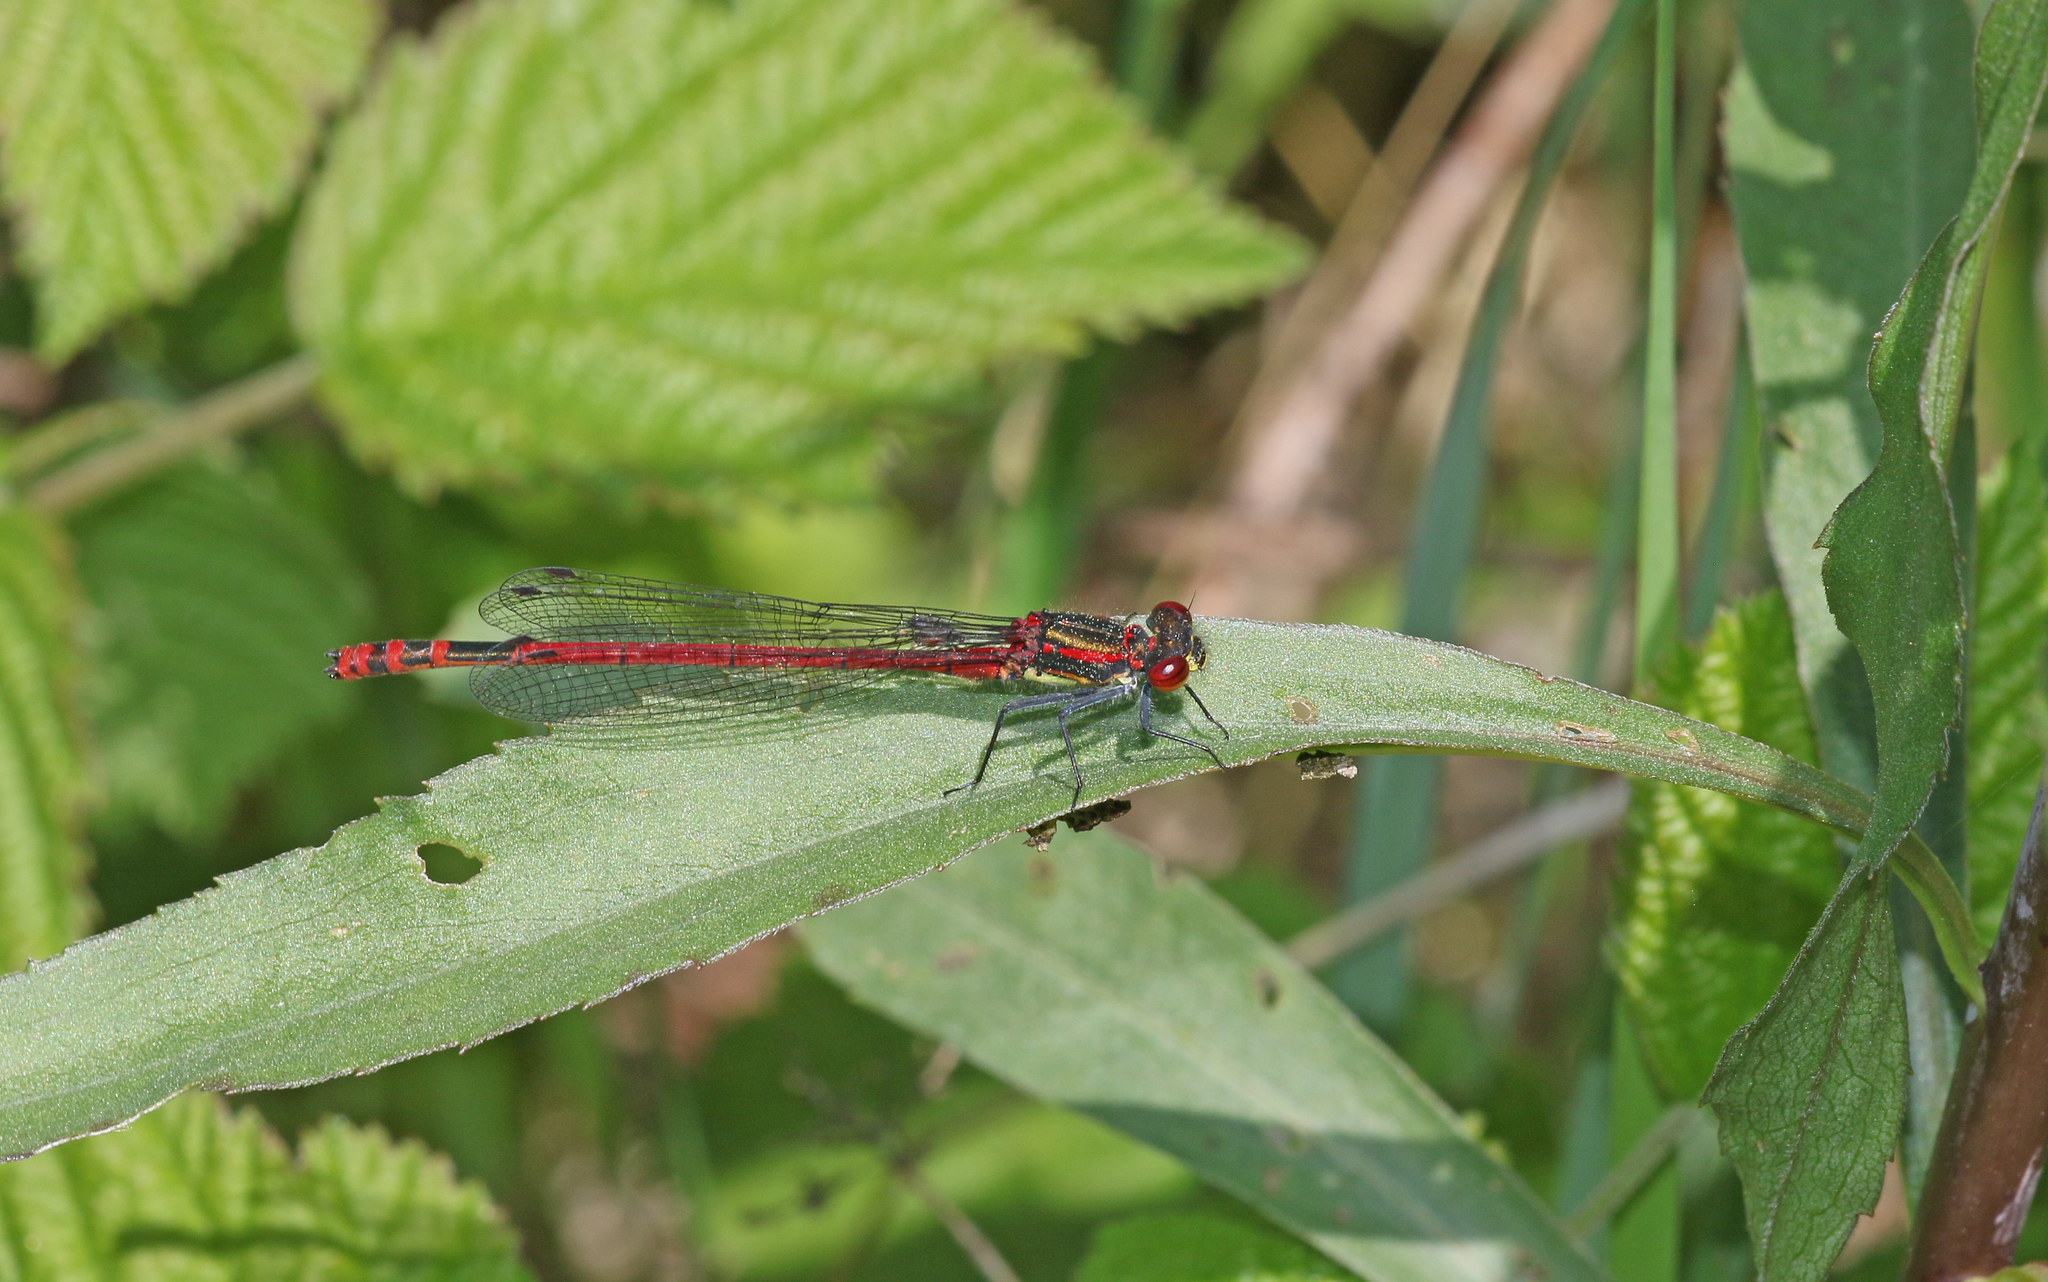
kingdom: Animalia
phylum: Arthropoda
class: Insecta
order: Odonata
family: Coenagrionidae
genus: Pyrrhosoma
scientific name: Pyrrhosoma nymphula
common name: Large red damsel
